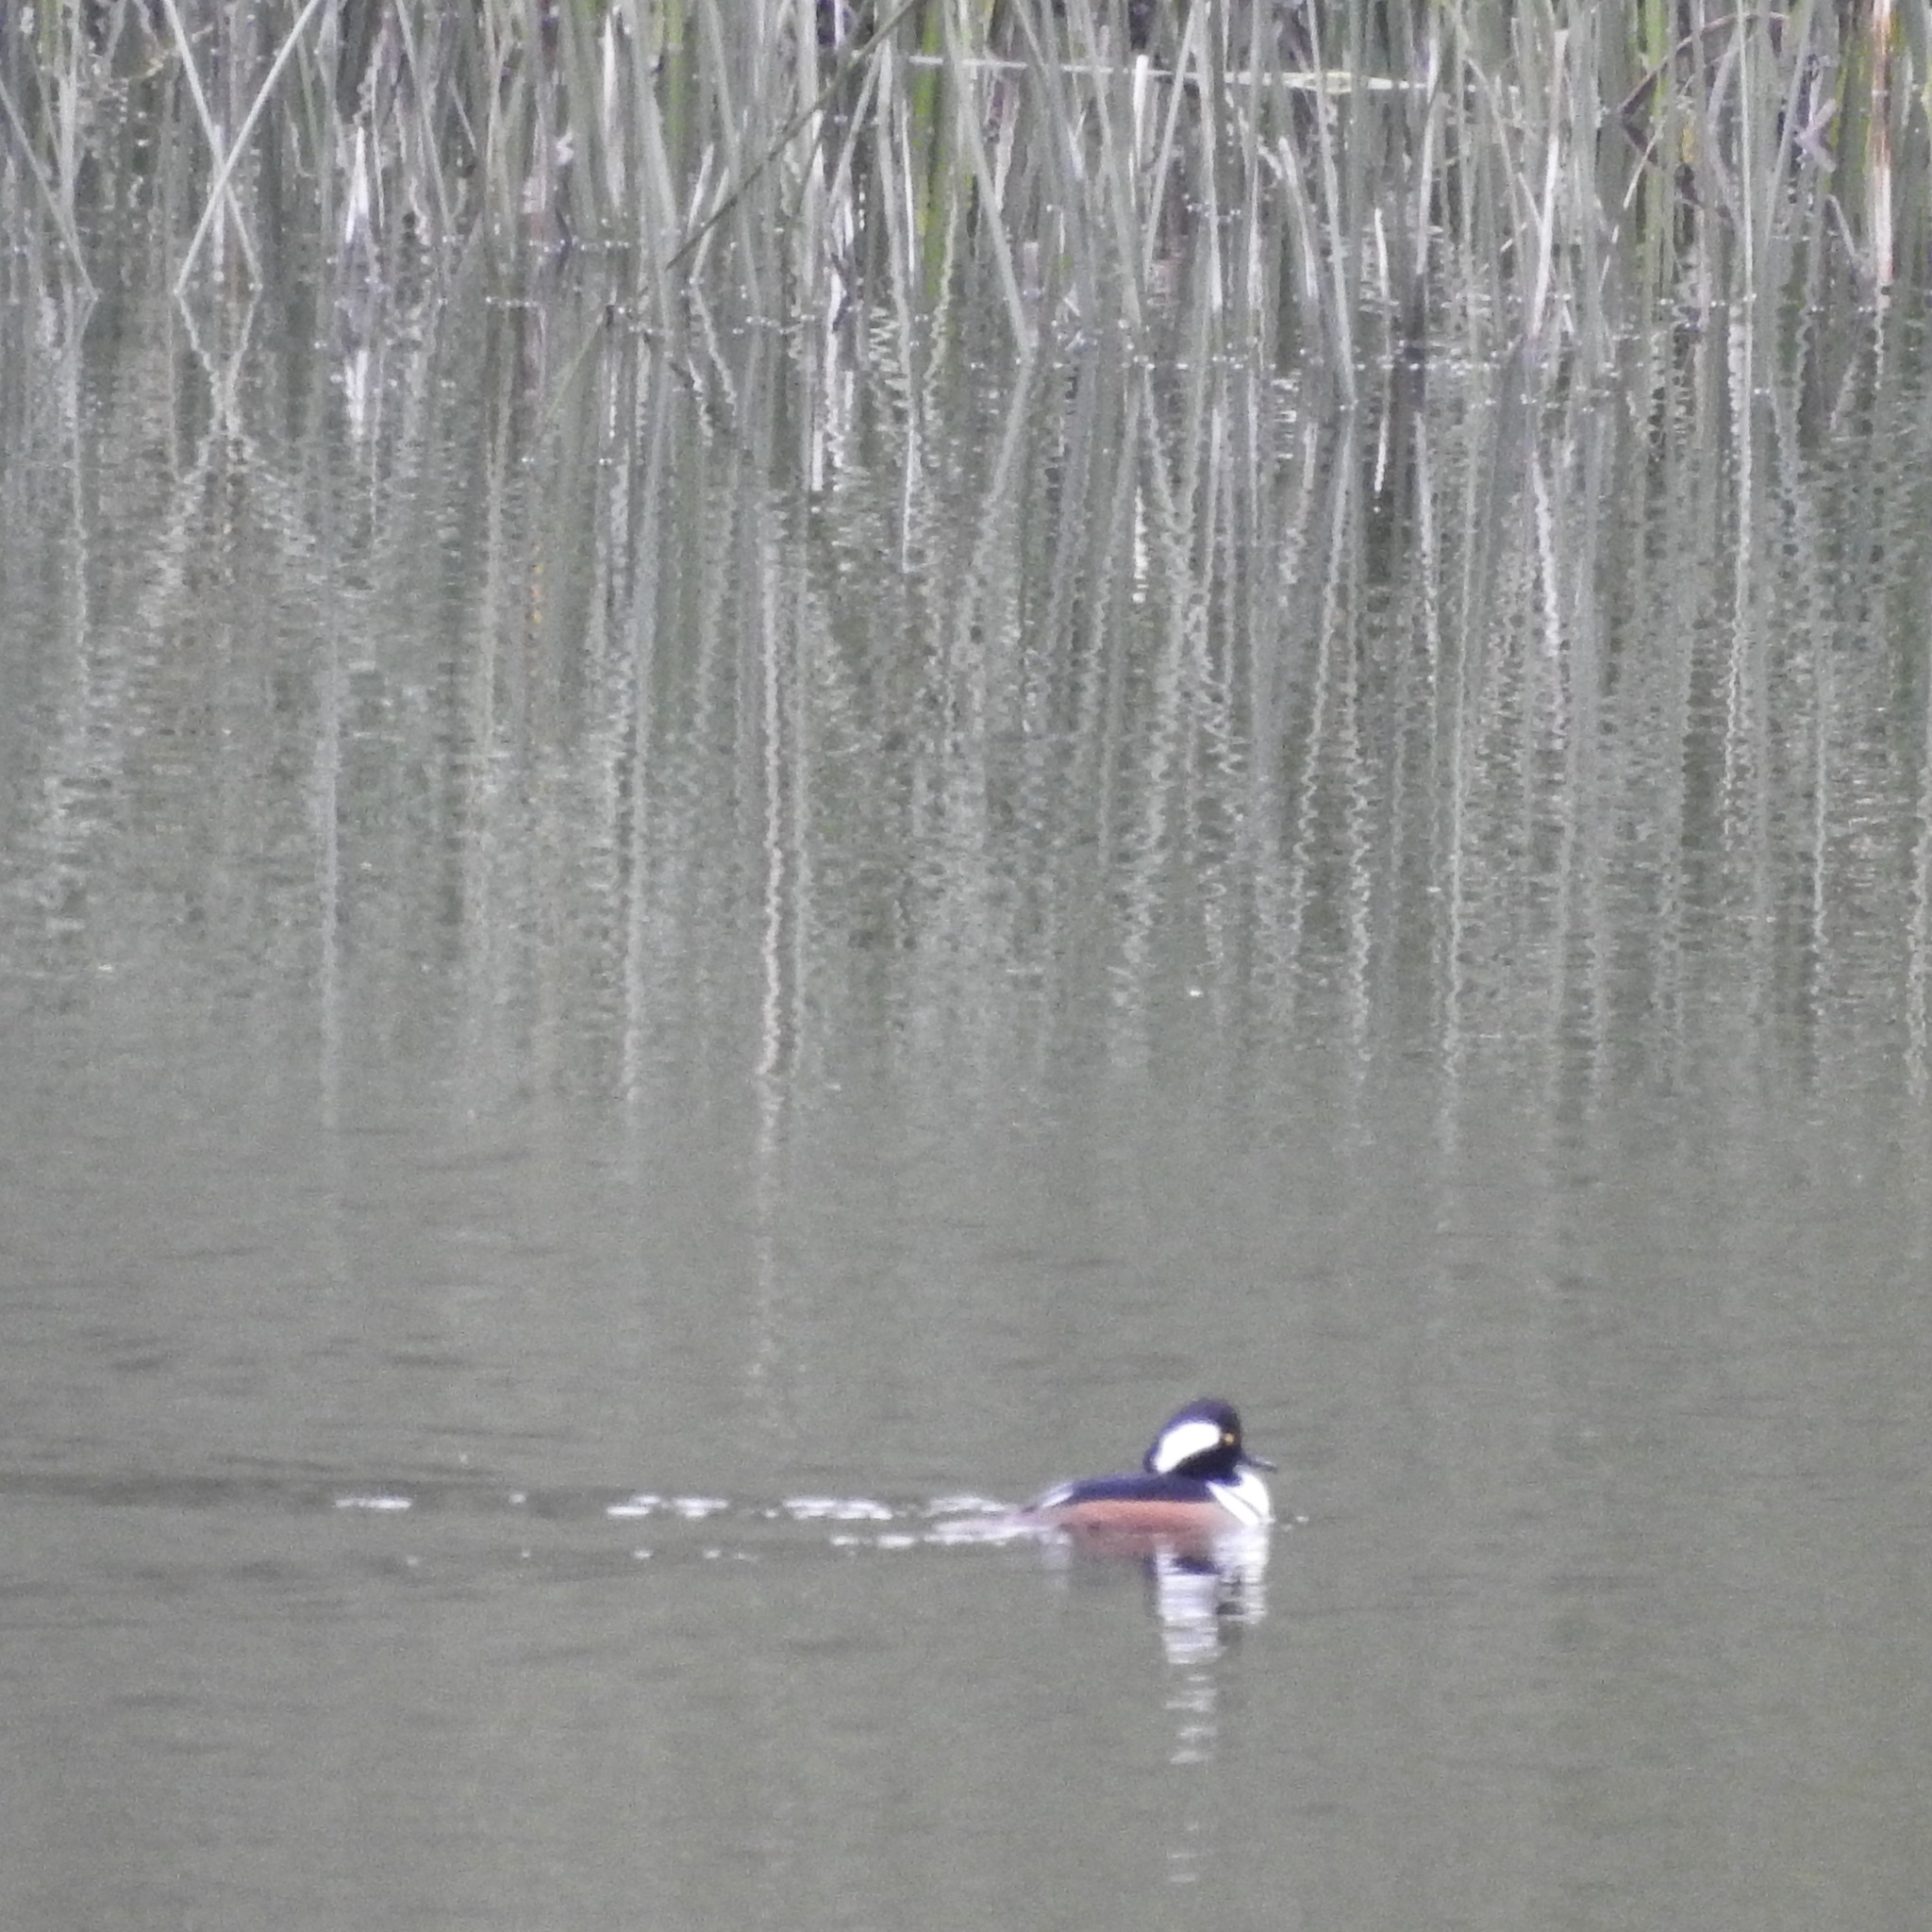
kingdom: Animalia
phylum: Chordata
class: Aves
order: Anseriformes
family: Anatidae
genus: Lophodytes
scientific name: Lophodytes cucullatus
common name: Hooded merganser
